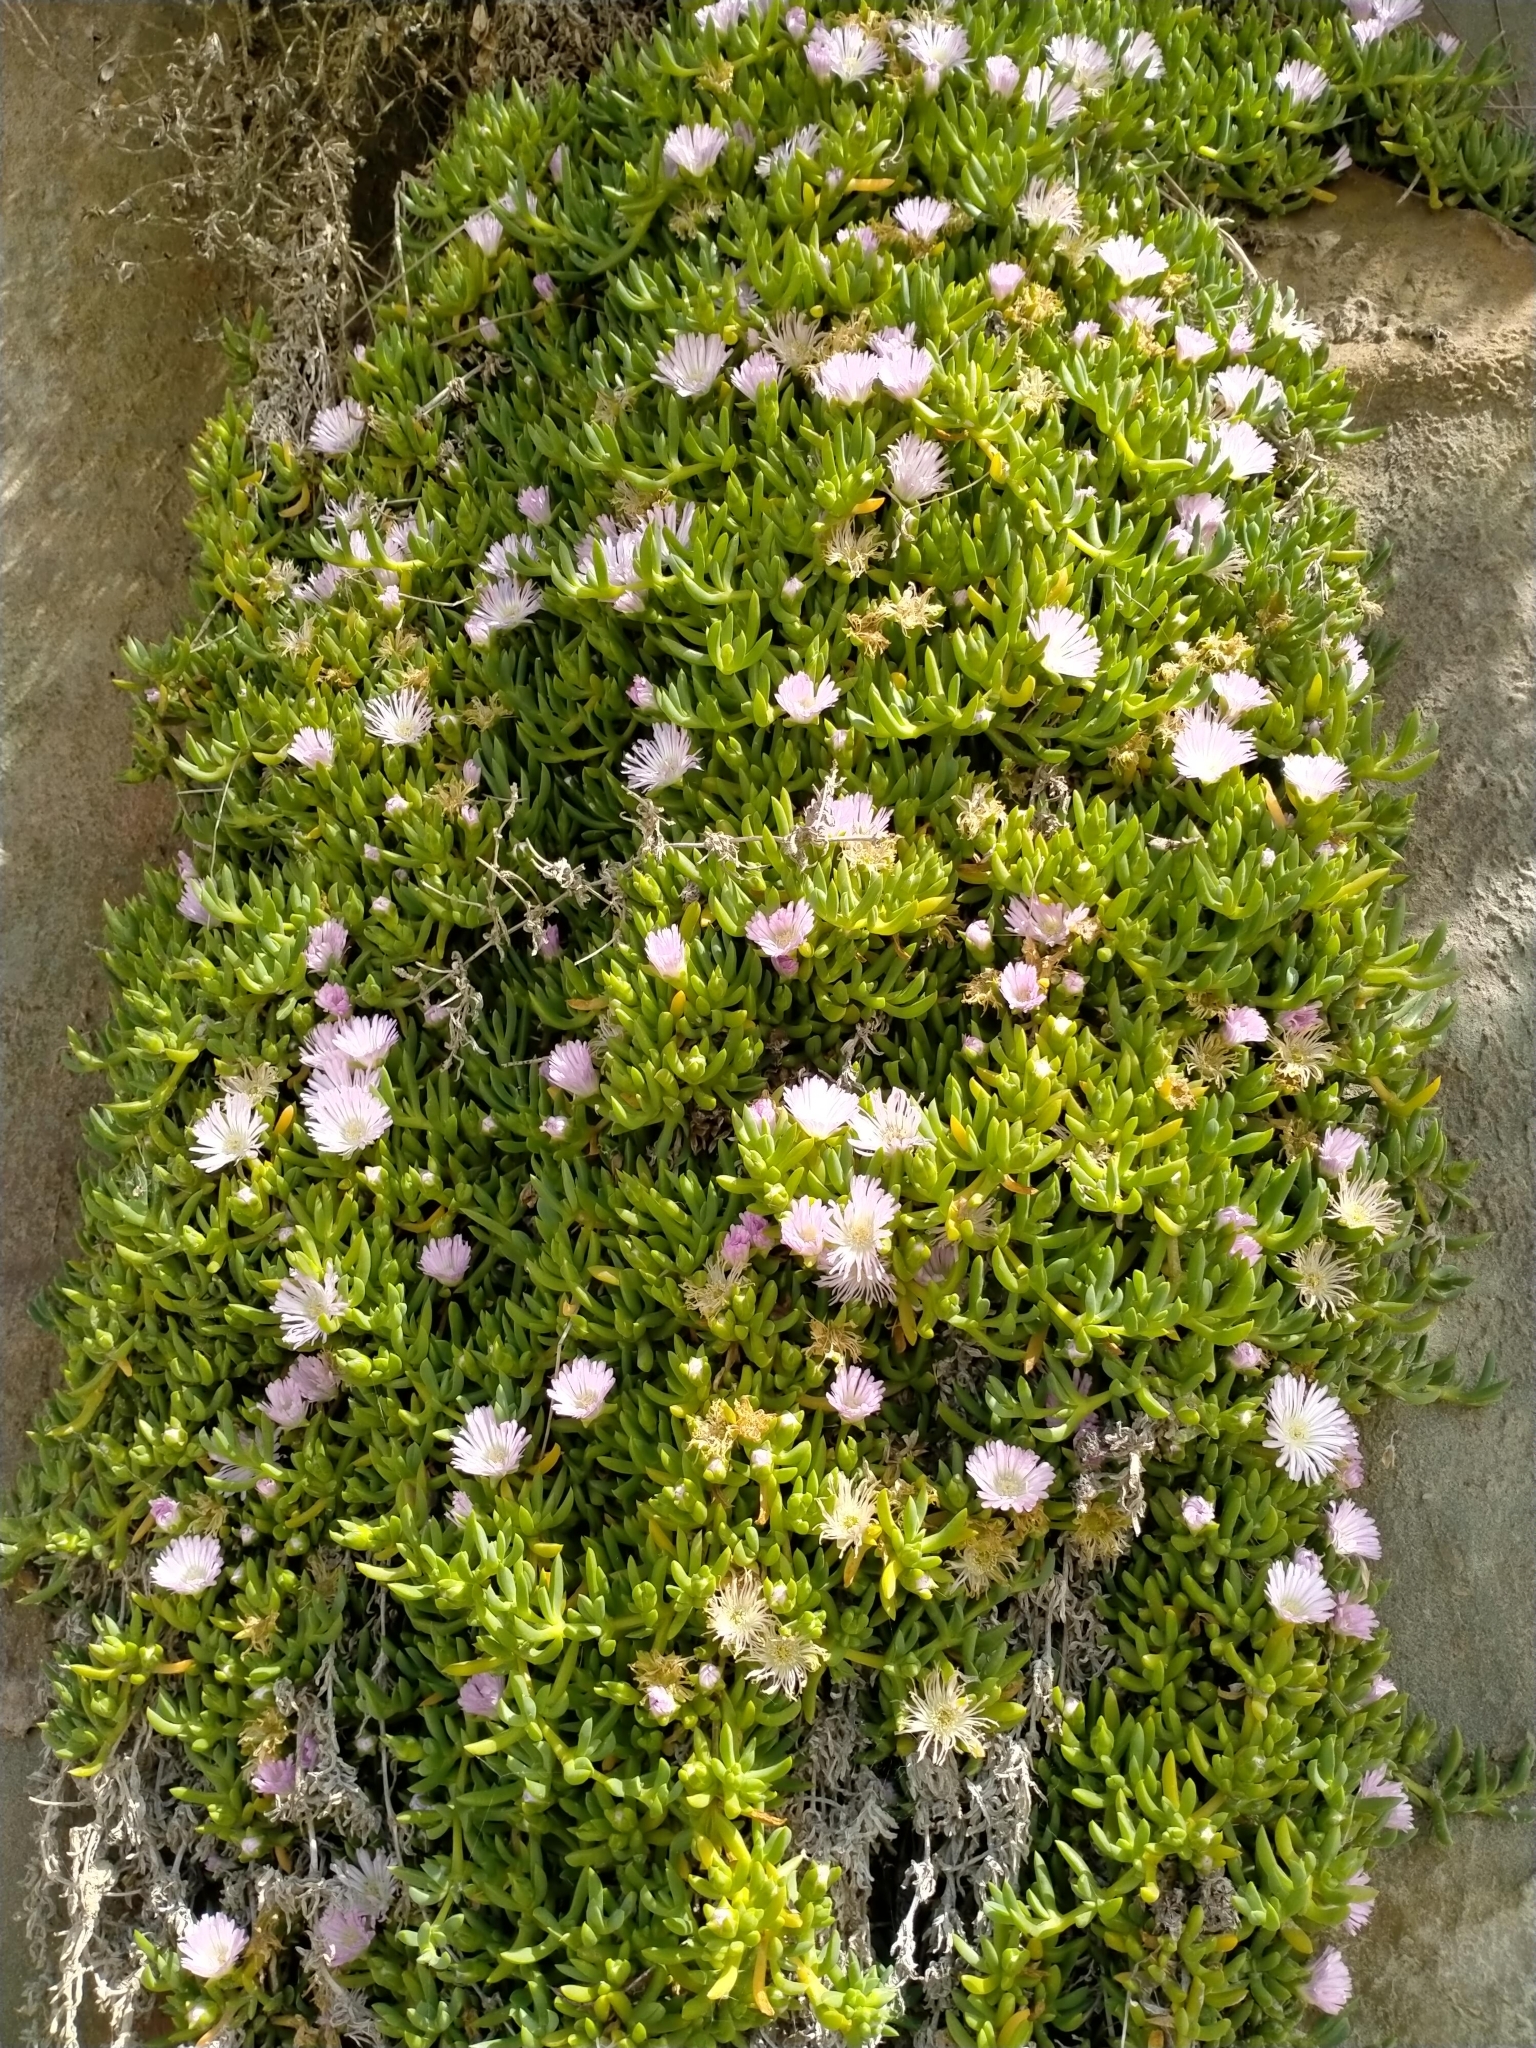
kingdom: Plantae
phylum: Tracheophyta
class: Magnoliopsida
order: Caryophyllales
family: Aizoaceae
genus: Disphyma
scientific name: Disphyma australe
